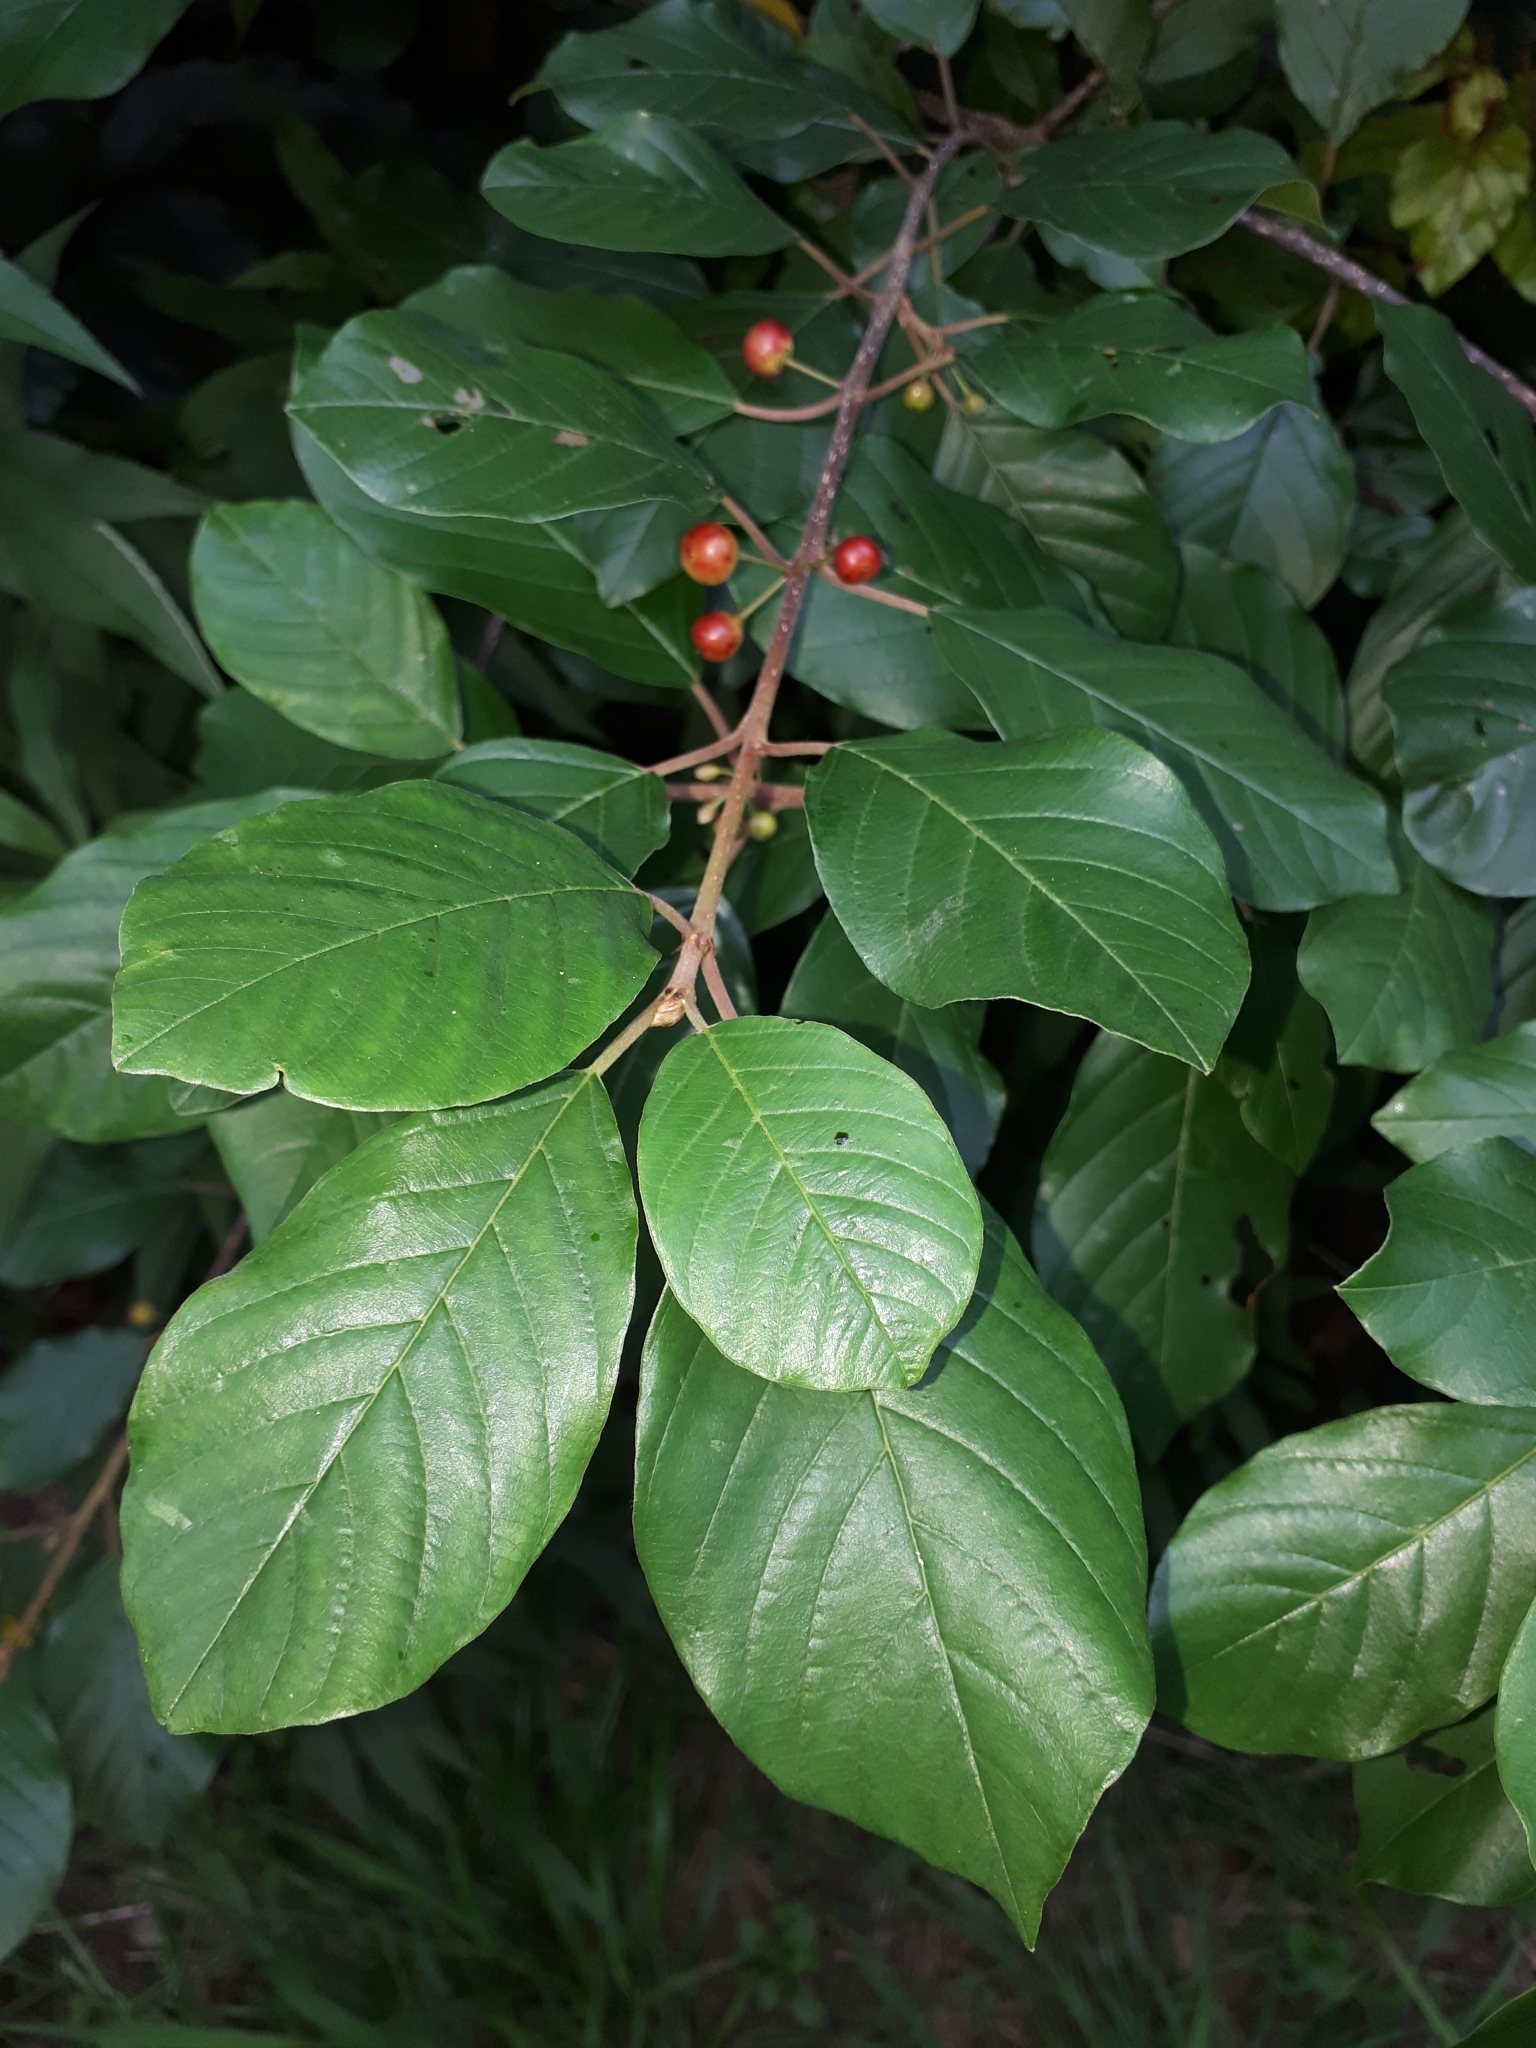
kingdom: Plantae
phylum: Tracheophyta
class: Magnoliopsida
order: Rosales
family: Rhamnaceae
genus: Frangula
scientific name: Frangula alnus
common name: Alder buckthorn
